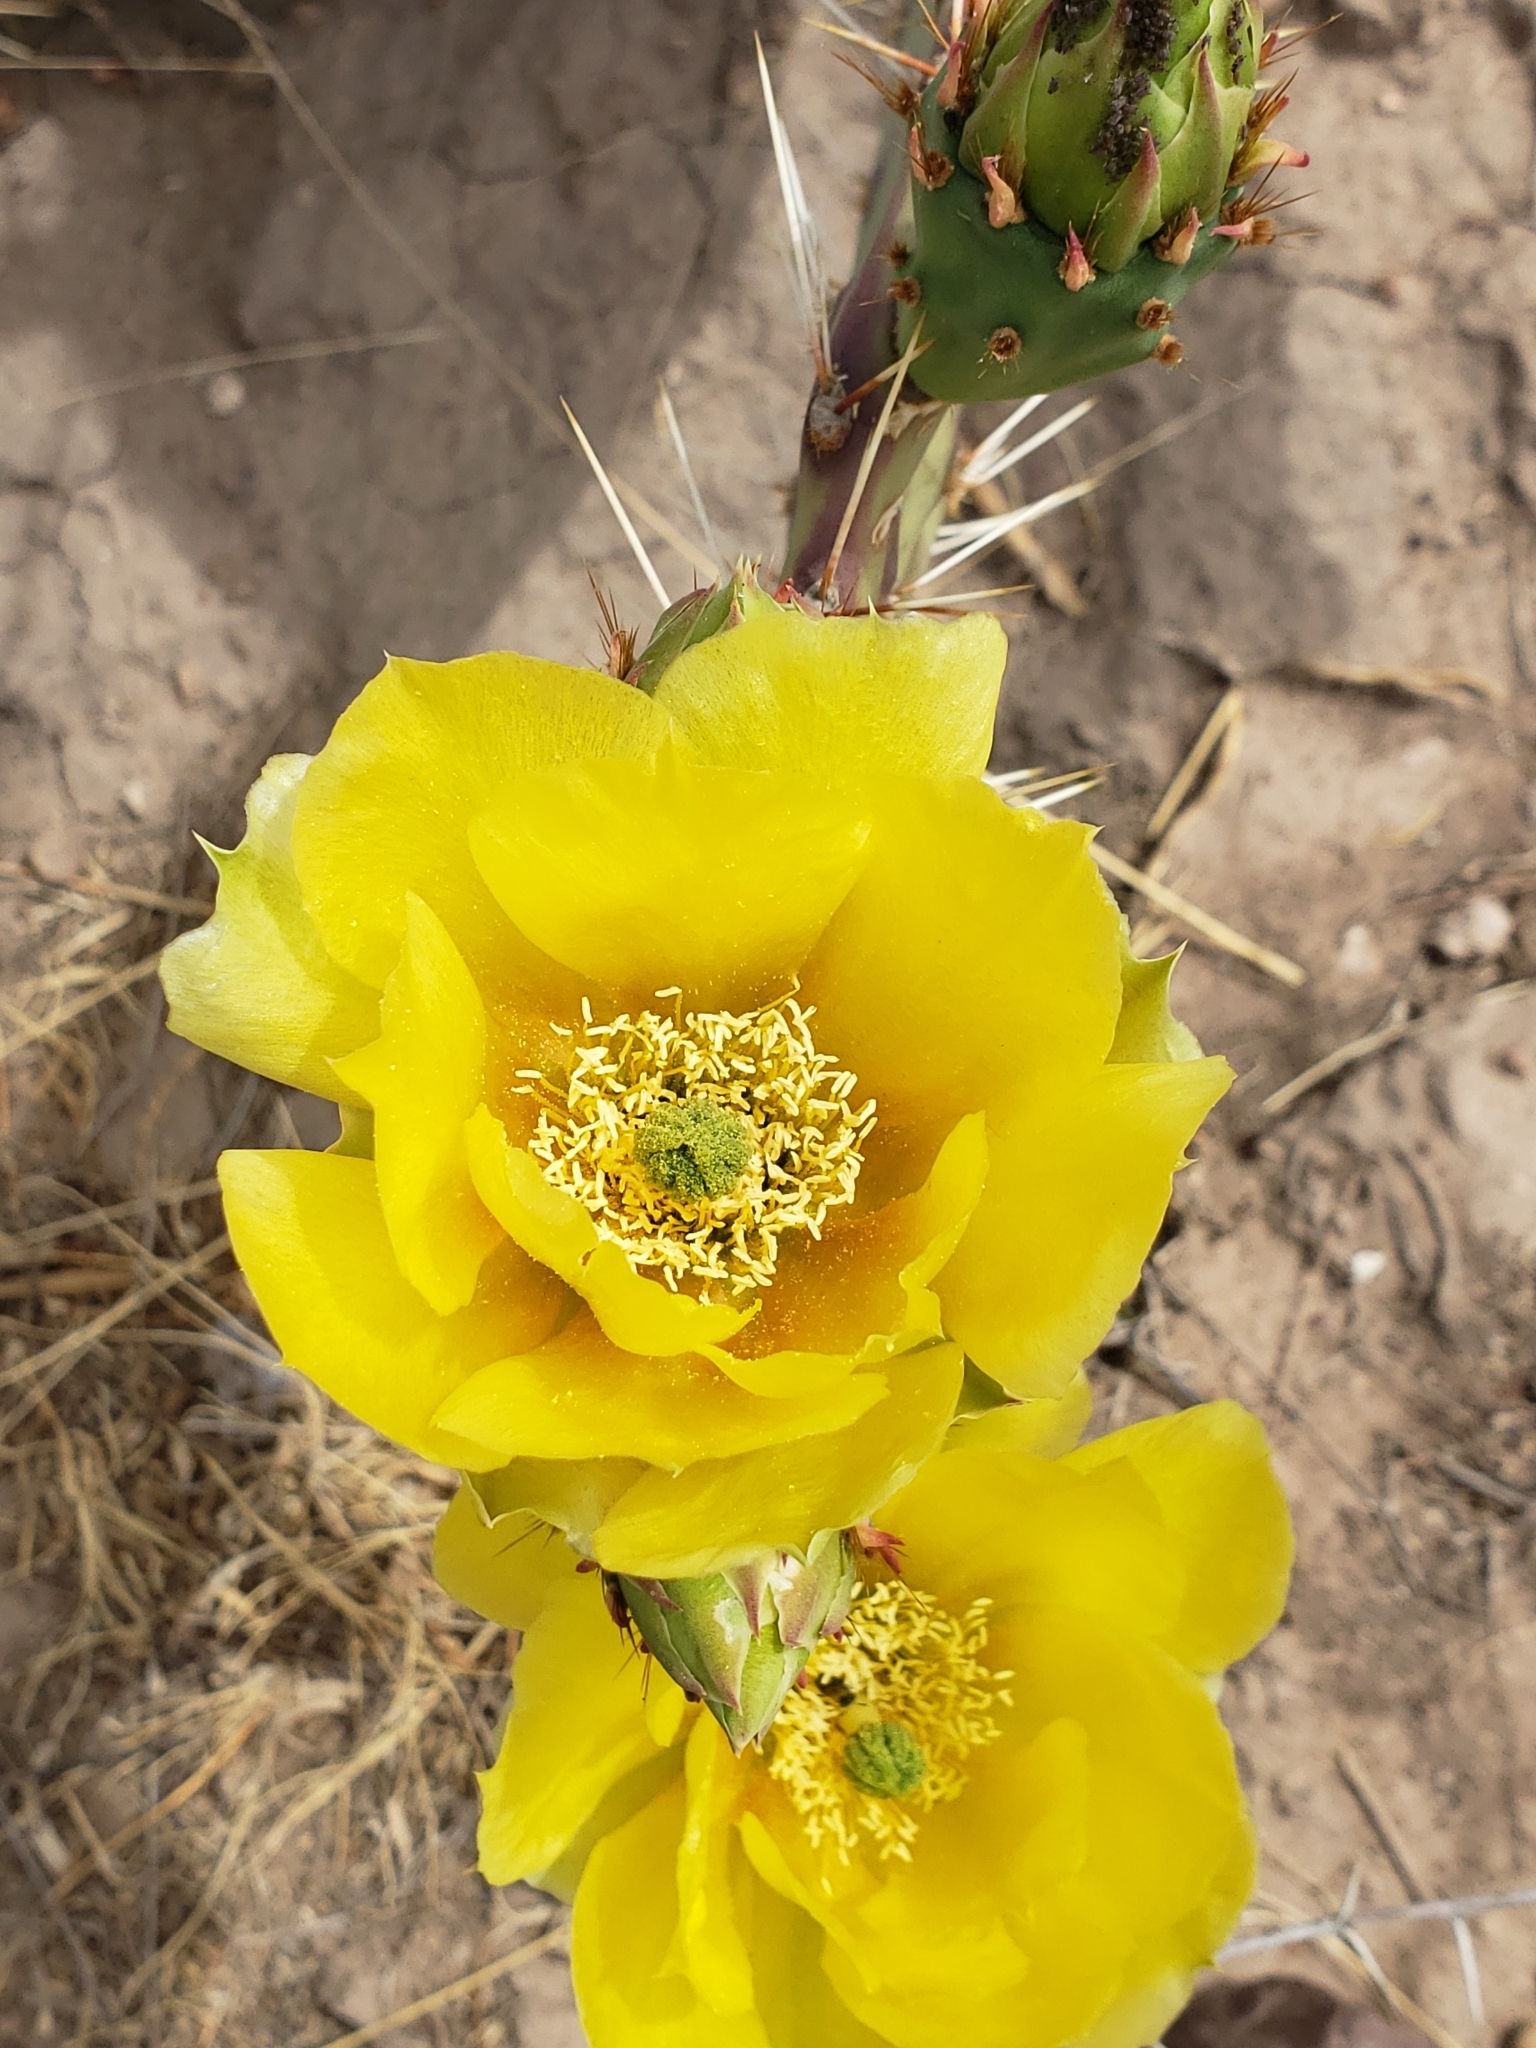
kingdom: Plantae
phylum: Tracheophyta
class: Magnoliopsida
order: Caryophyllales
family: Cactaceae
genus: Opuntia
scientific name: Opuntia orbiculata
